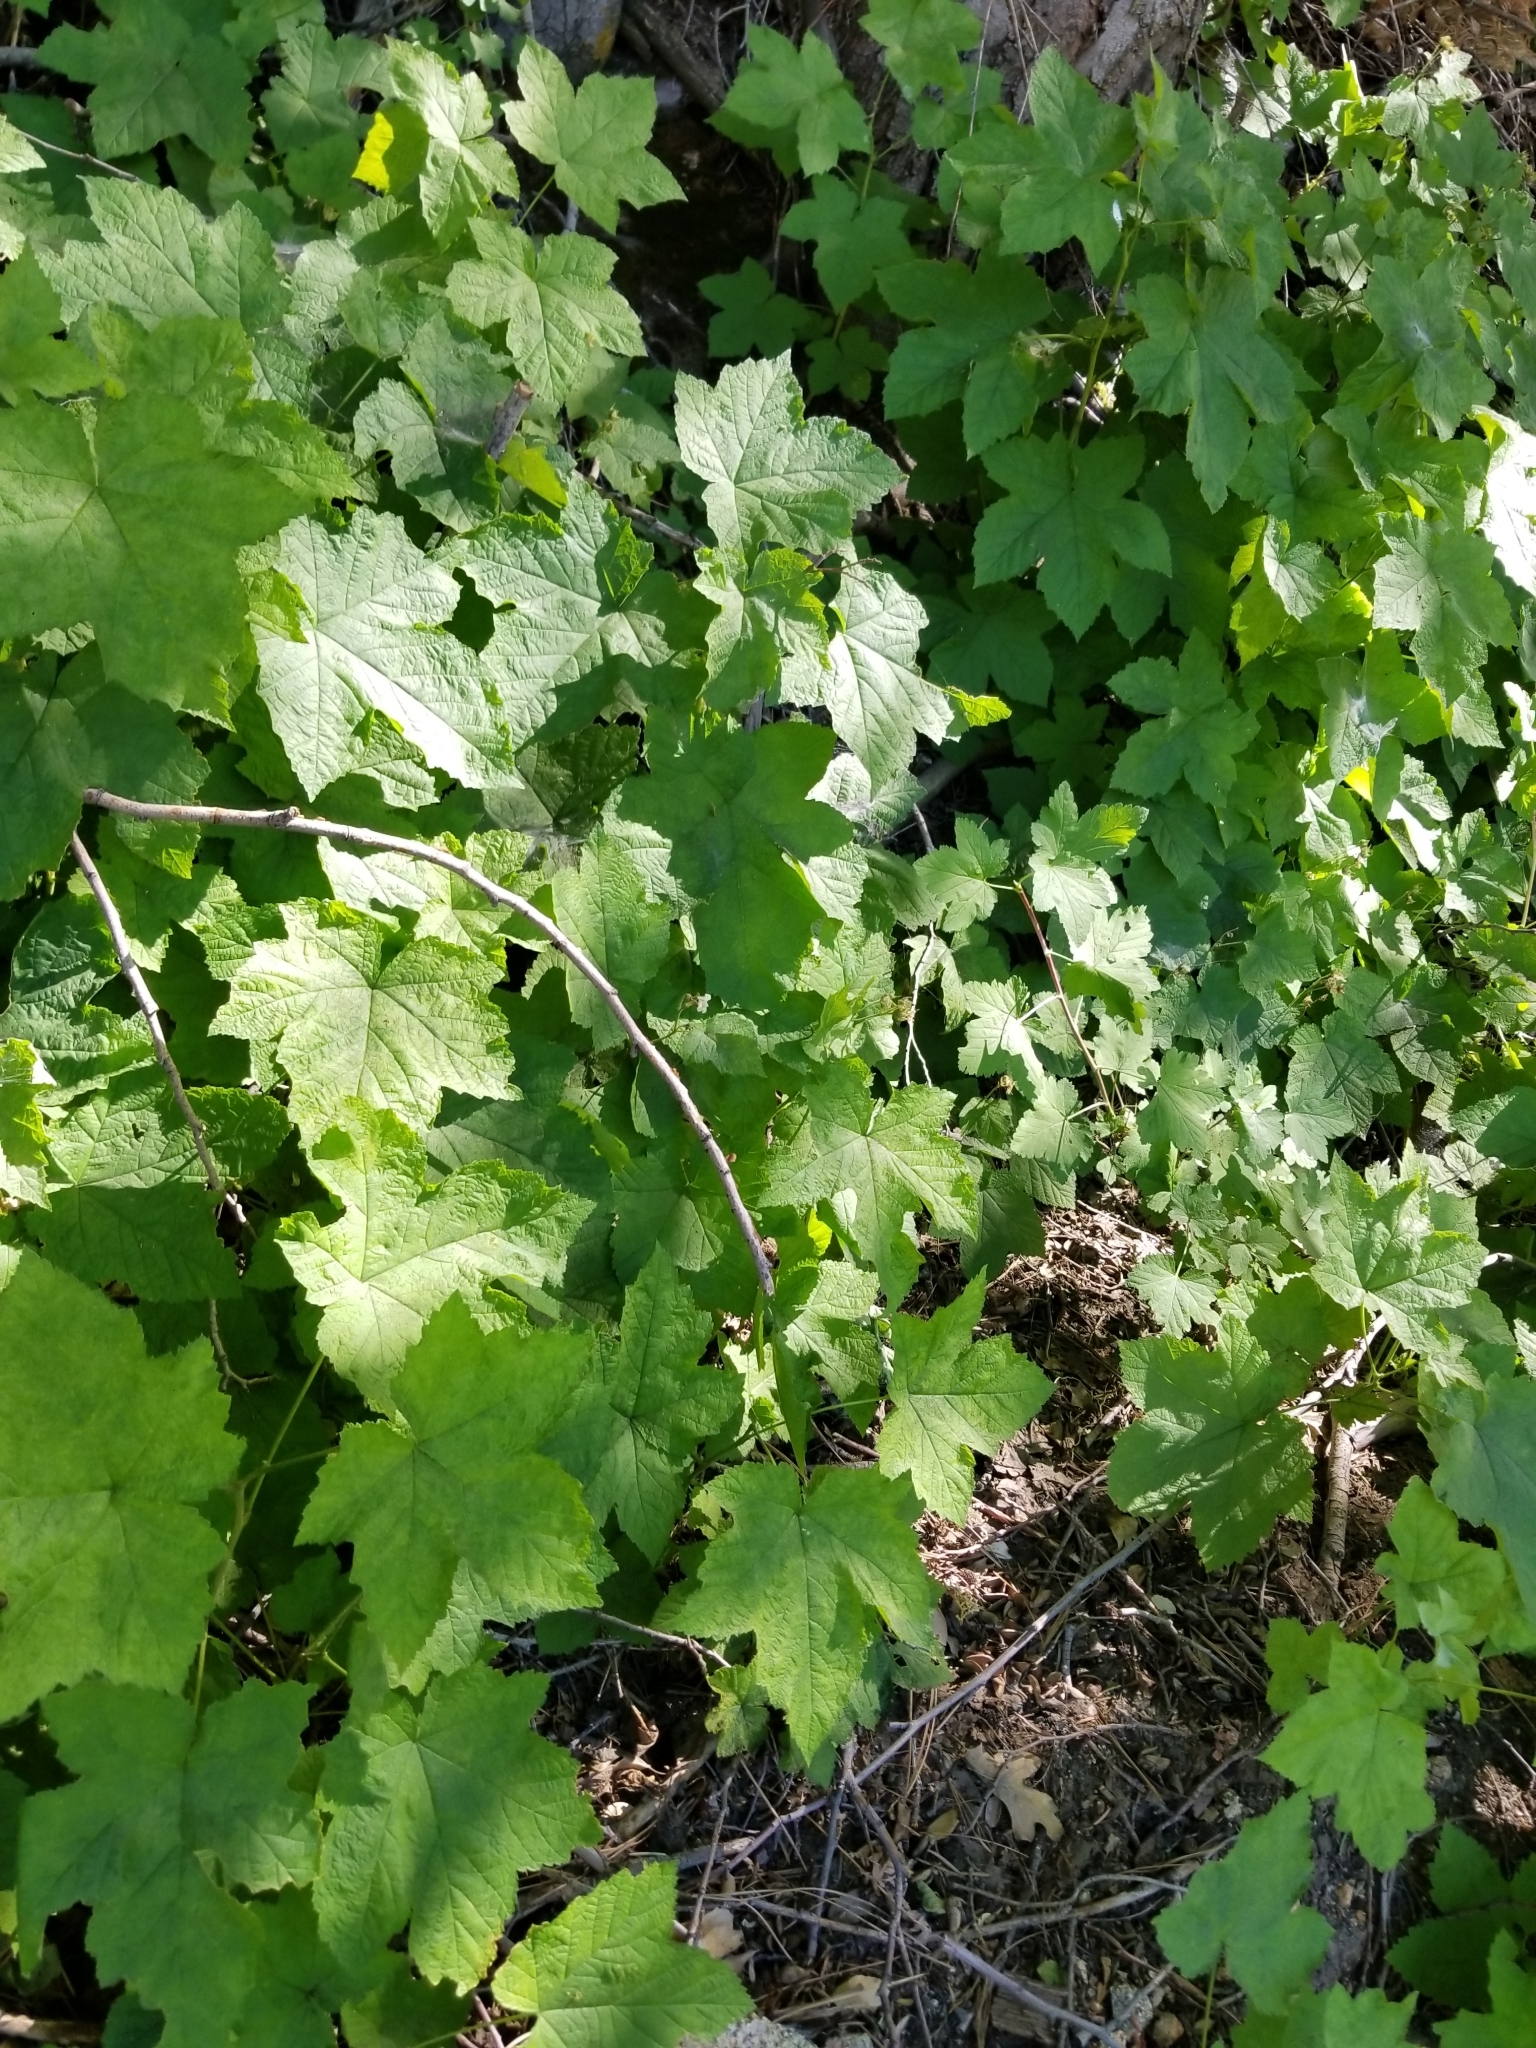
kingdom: Plantae
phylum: Tracheophyta
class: Magnoliopsida
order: Rosales
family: Rosaceae
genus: Rubus
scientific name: Rubus parviflorus
